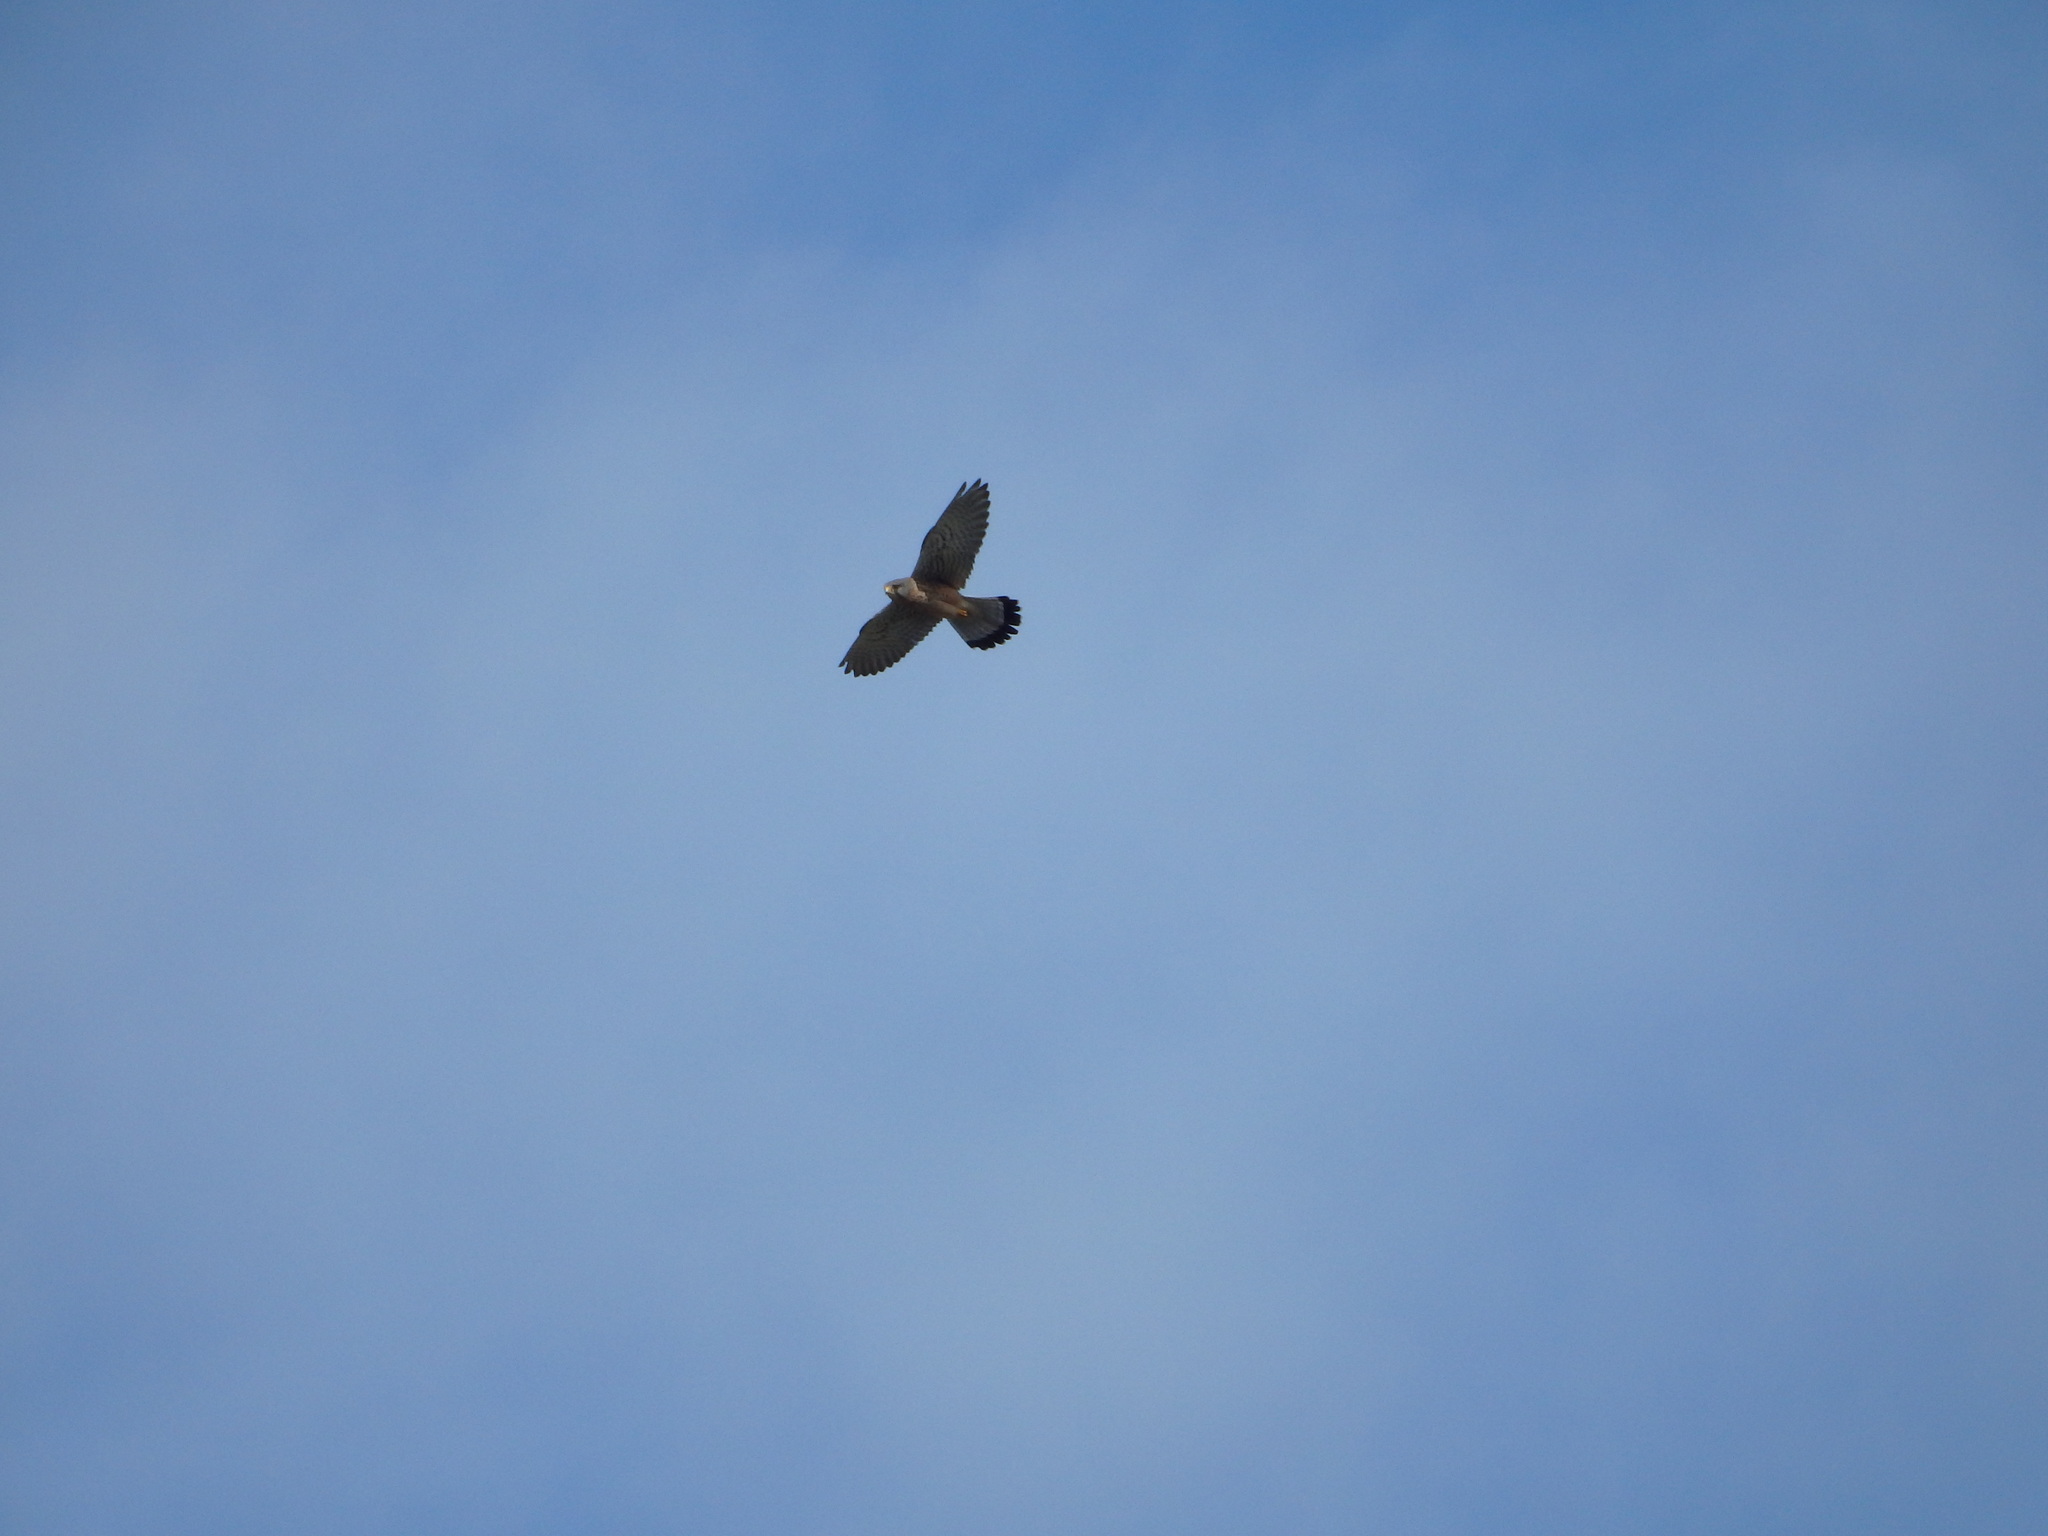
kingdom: Animalia
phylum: Chordata
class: Aves
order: Falconiformes
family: Falconidae
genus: Falco
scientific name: Falco tinnunculus
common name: Common kestrel
